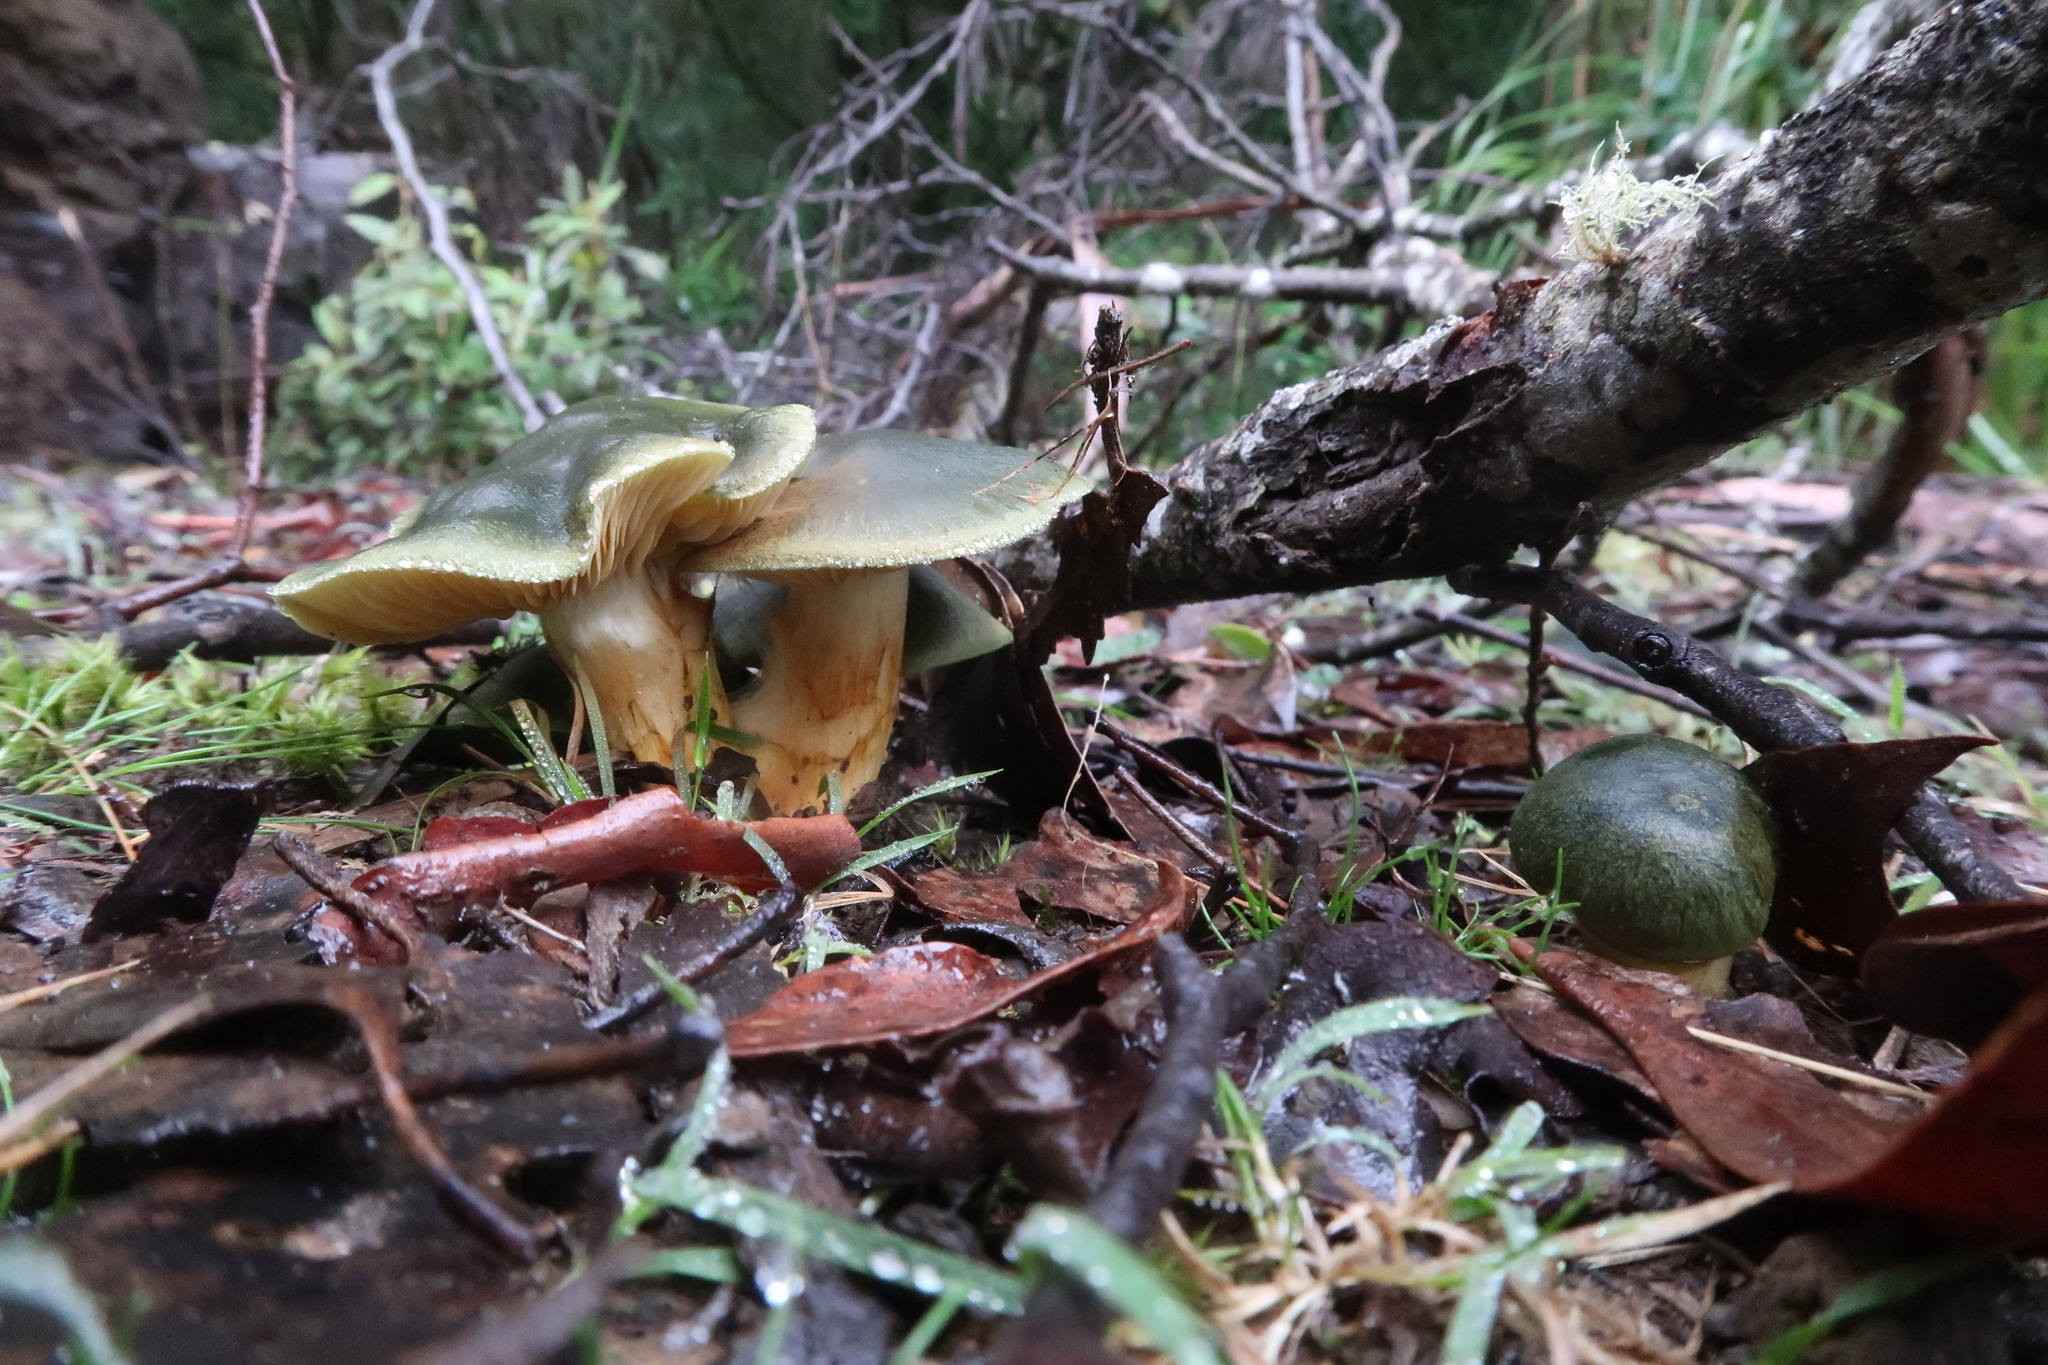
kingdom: Fungi
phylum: Basidiomycota
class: Agaricomycetes
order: Agaricales
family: Cortinariaceae
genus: Cortinarius
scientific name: Cortinarius austrovenetus
